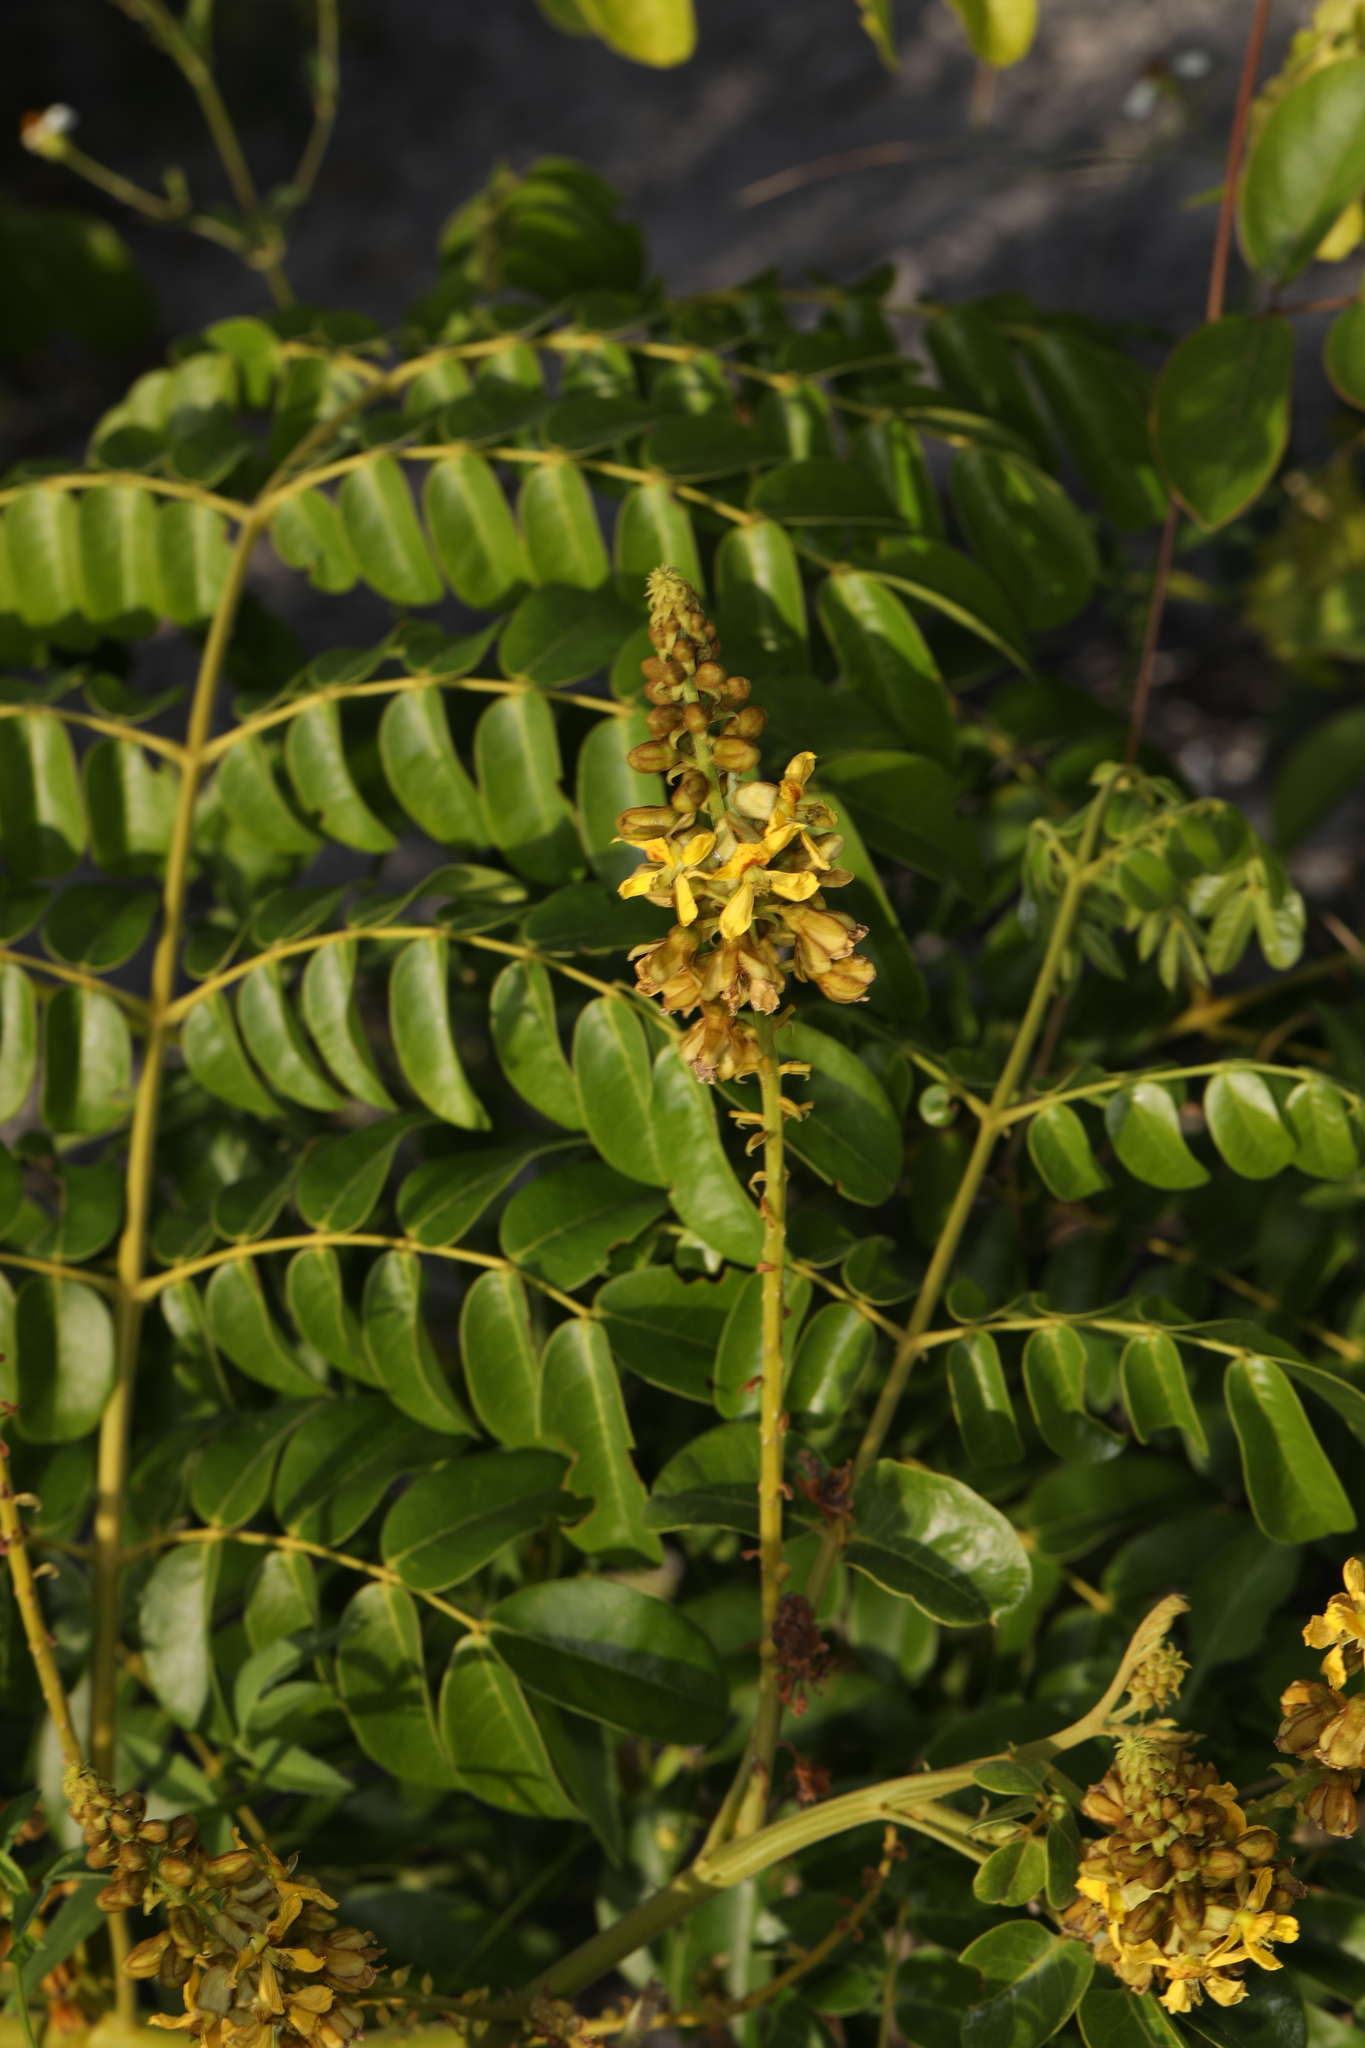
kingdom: Plantae
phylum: Tracheophyta
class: Magnoliopsida
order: Fabales
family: Fabaceae
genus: Guilandina
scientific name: Guilandina bonduc
